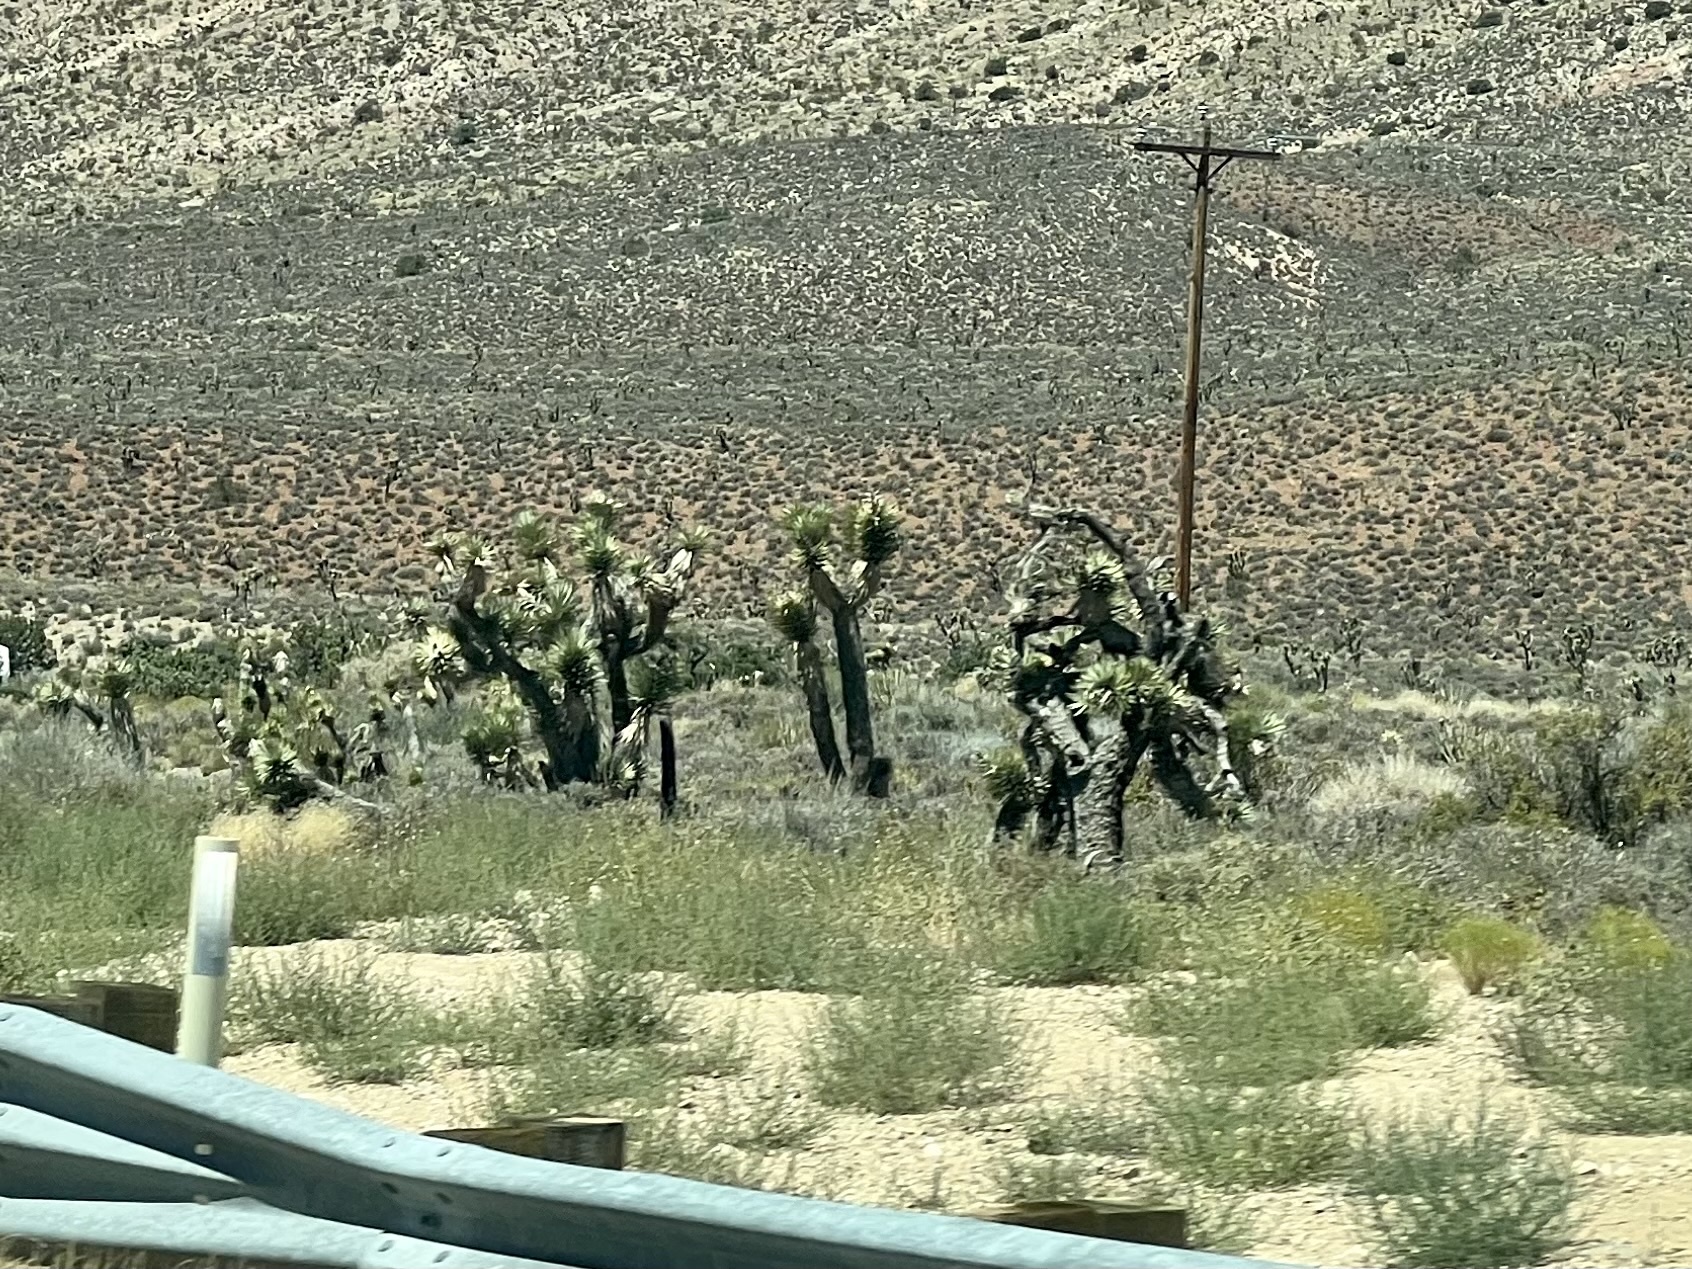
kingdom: Plantae
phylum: Tracheophyta
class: Liliopsida
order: Asparagales
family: Asparagaceae
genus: Yucca
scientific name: Yucca brevifolia
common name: Joshua tree
